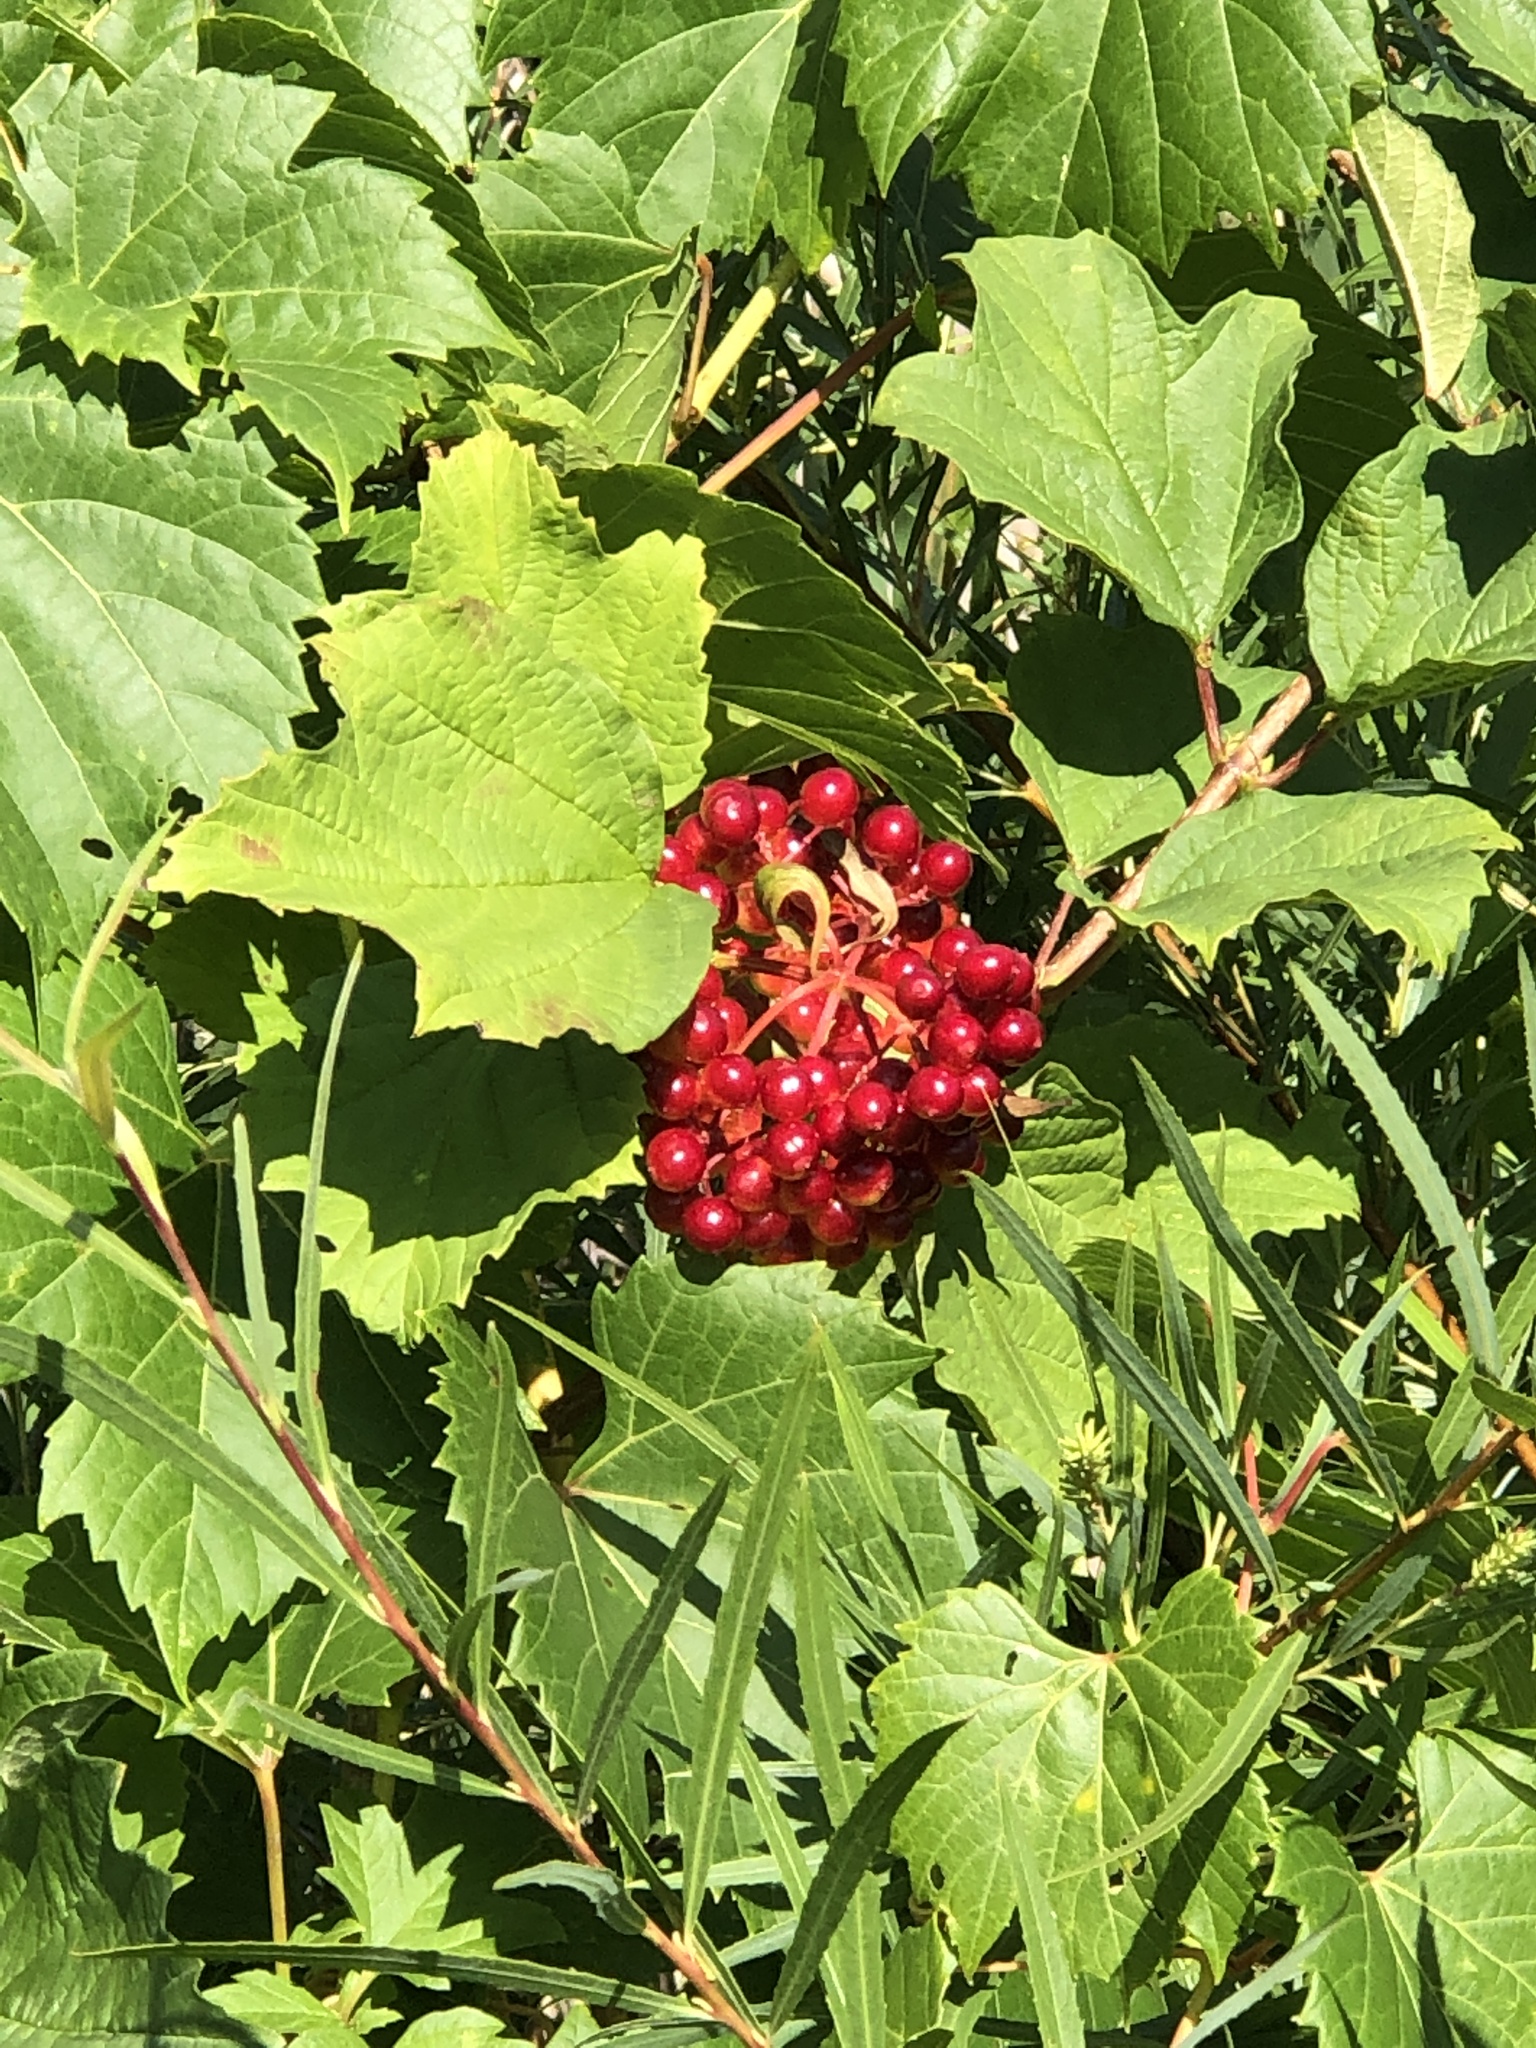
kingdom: Plantae
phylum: Tracheophyta
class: Magnoliopsida
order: Dipsacales
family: Viburnaceae
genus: Viburnum
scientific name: Viburnum opulus
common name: Guelder-rose
